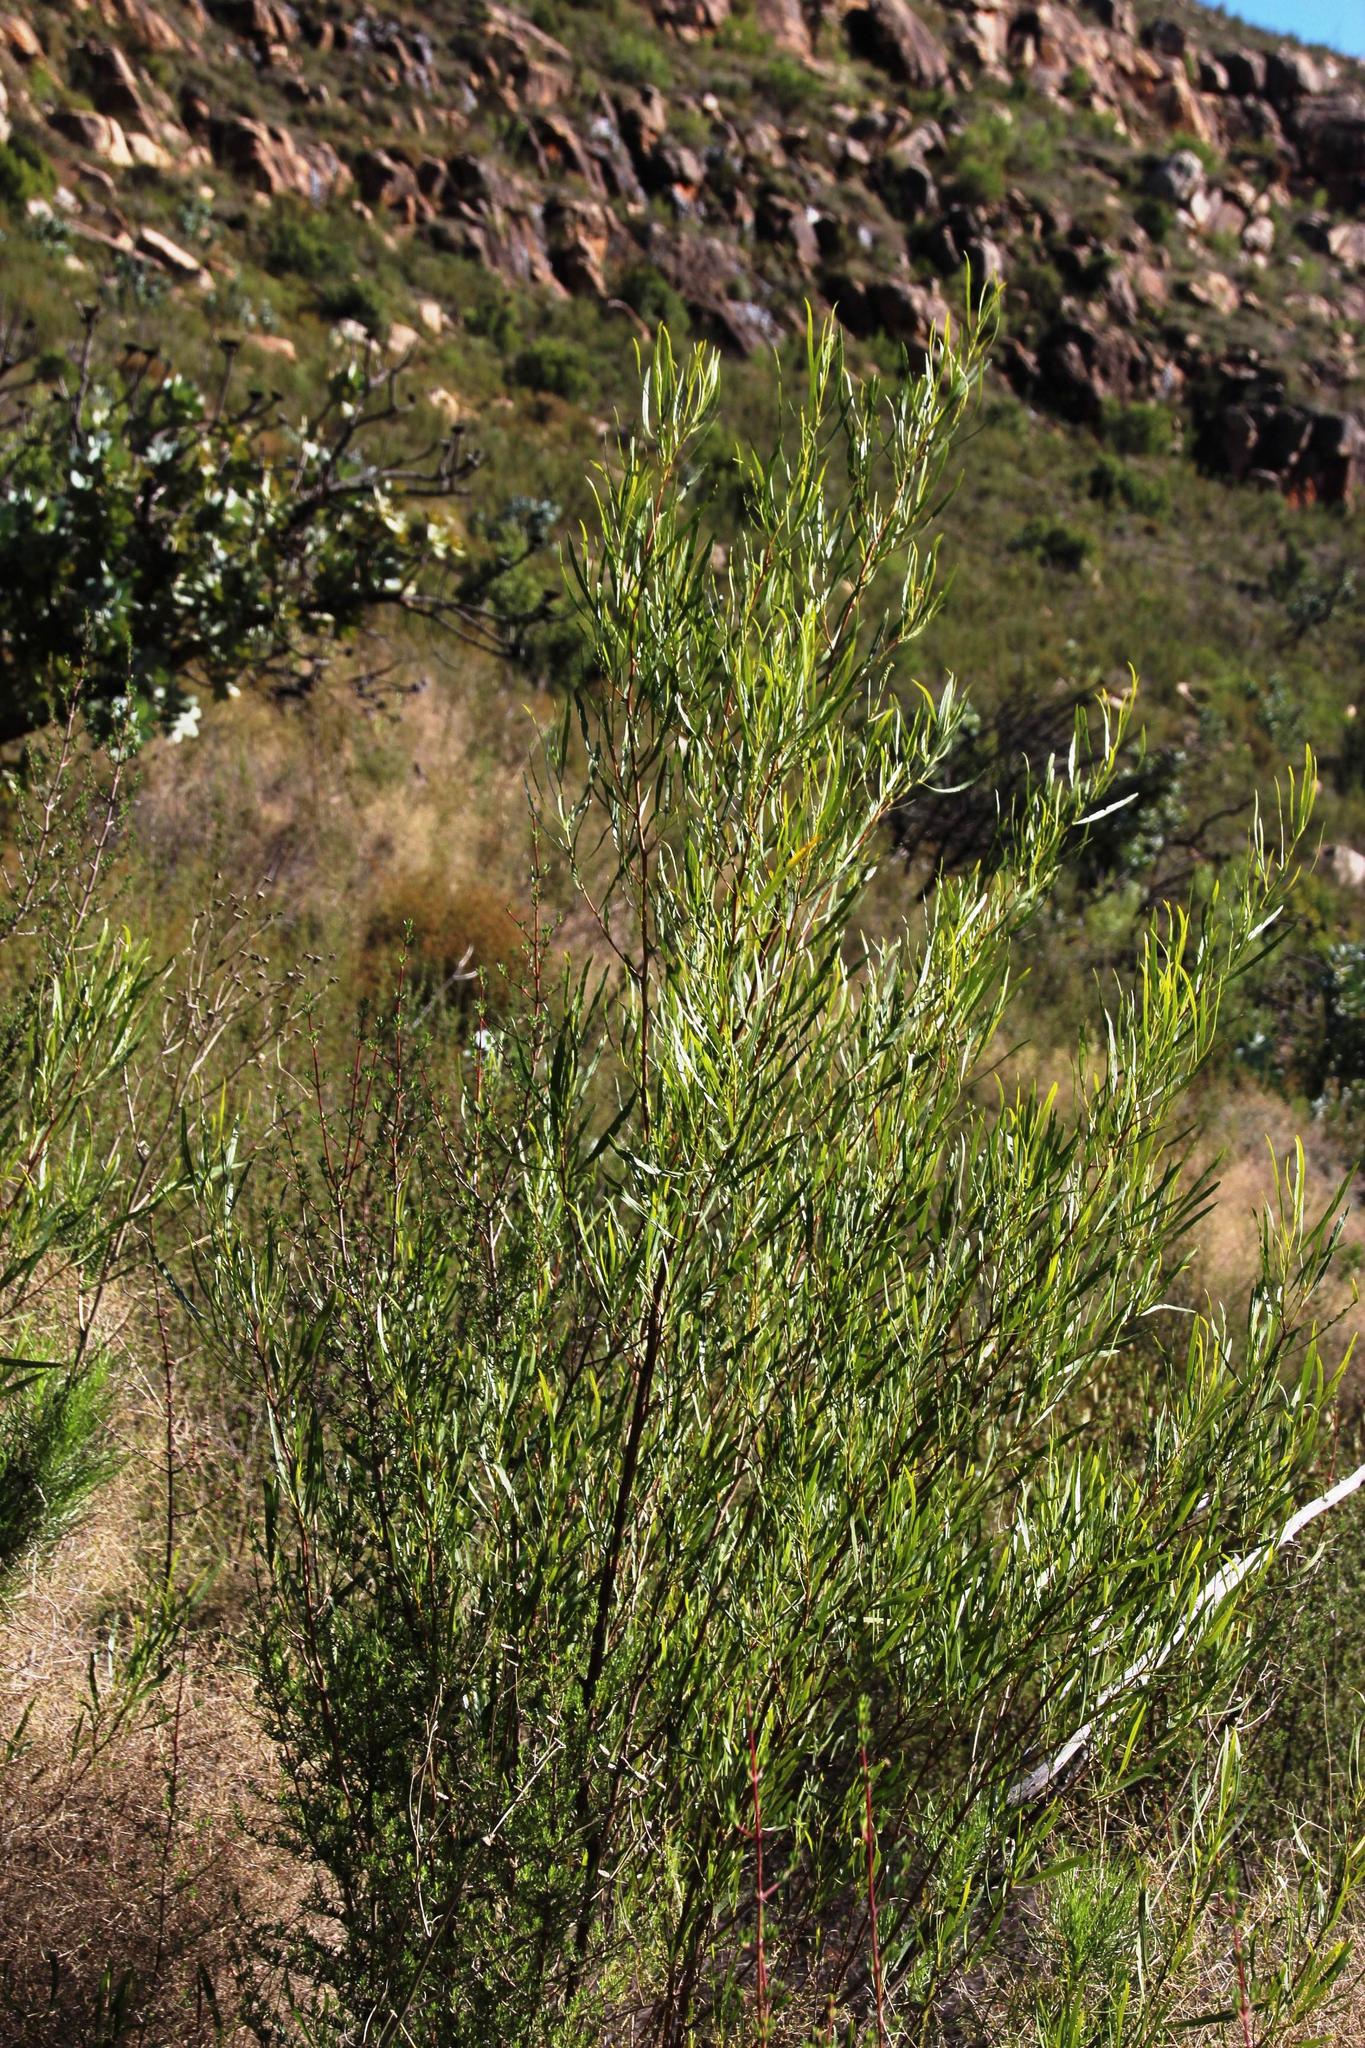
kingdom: Plantae
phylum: Tracheophyta
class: Magnoliopsida
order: Sapindales
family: Sapindaceae
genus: Dodonaea
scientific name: Dodonaea viscosa
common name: Hopbush
